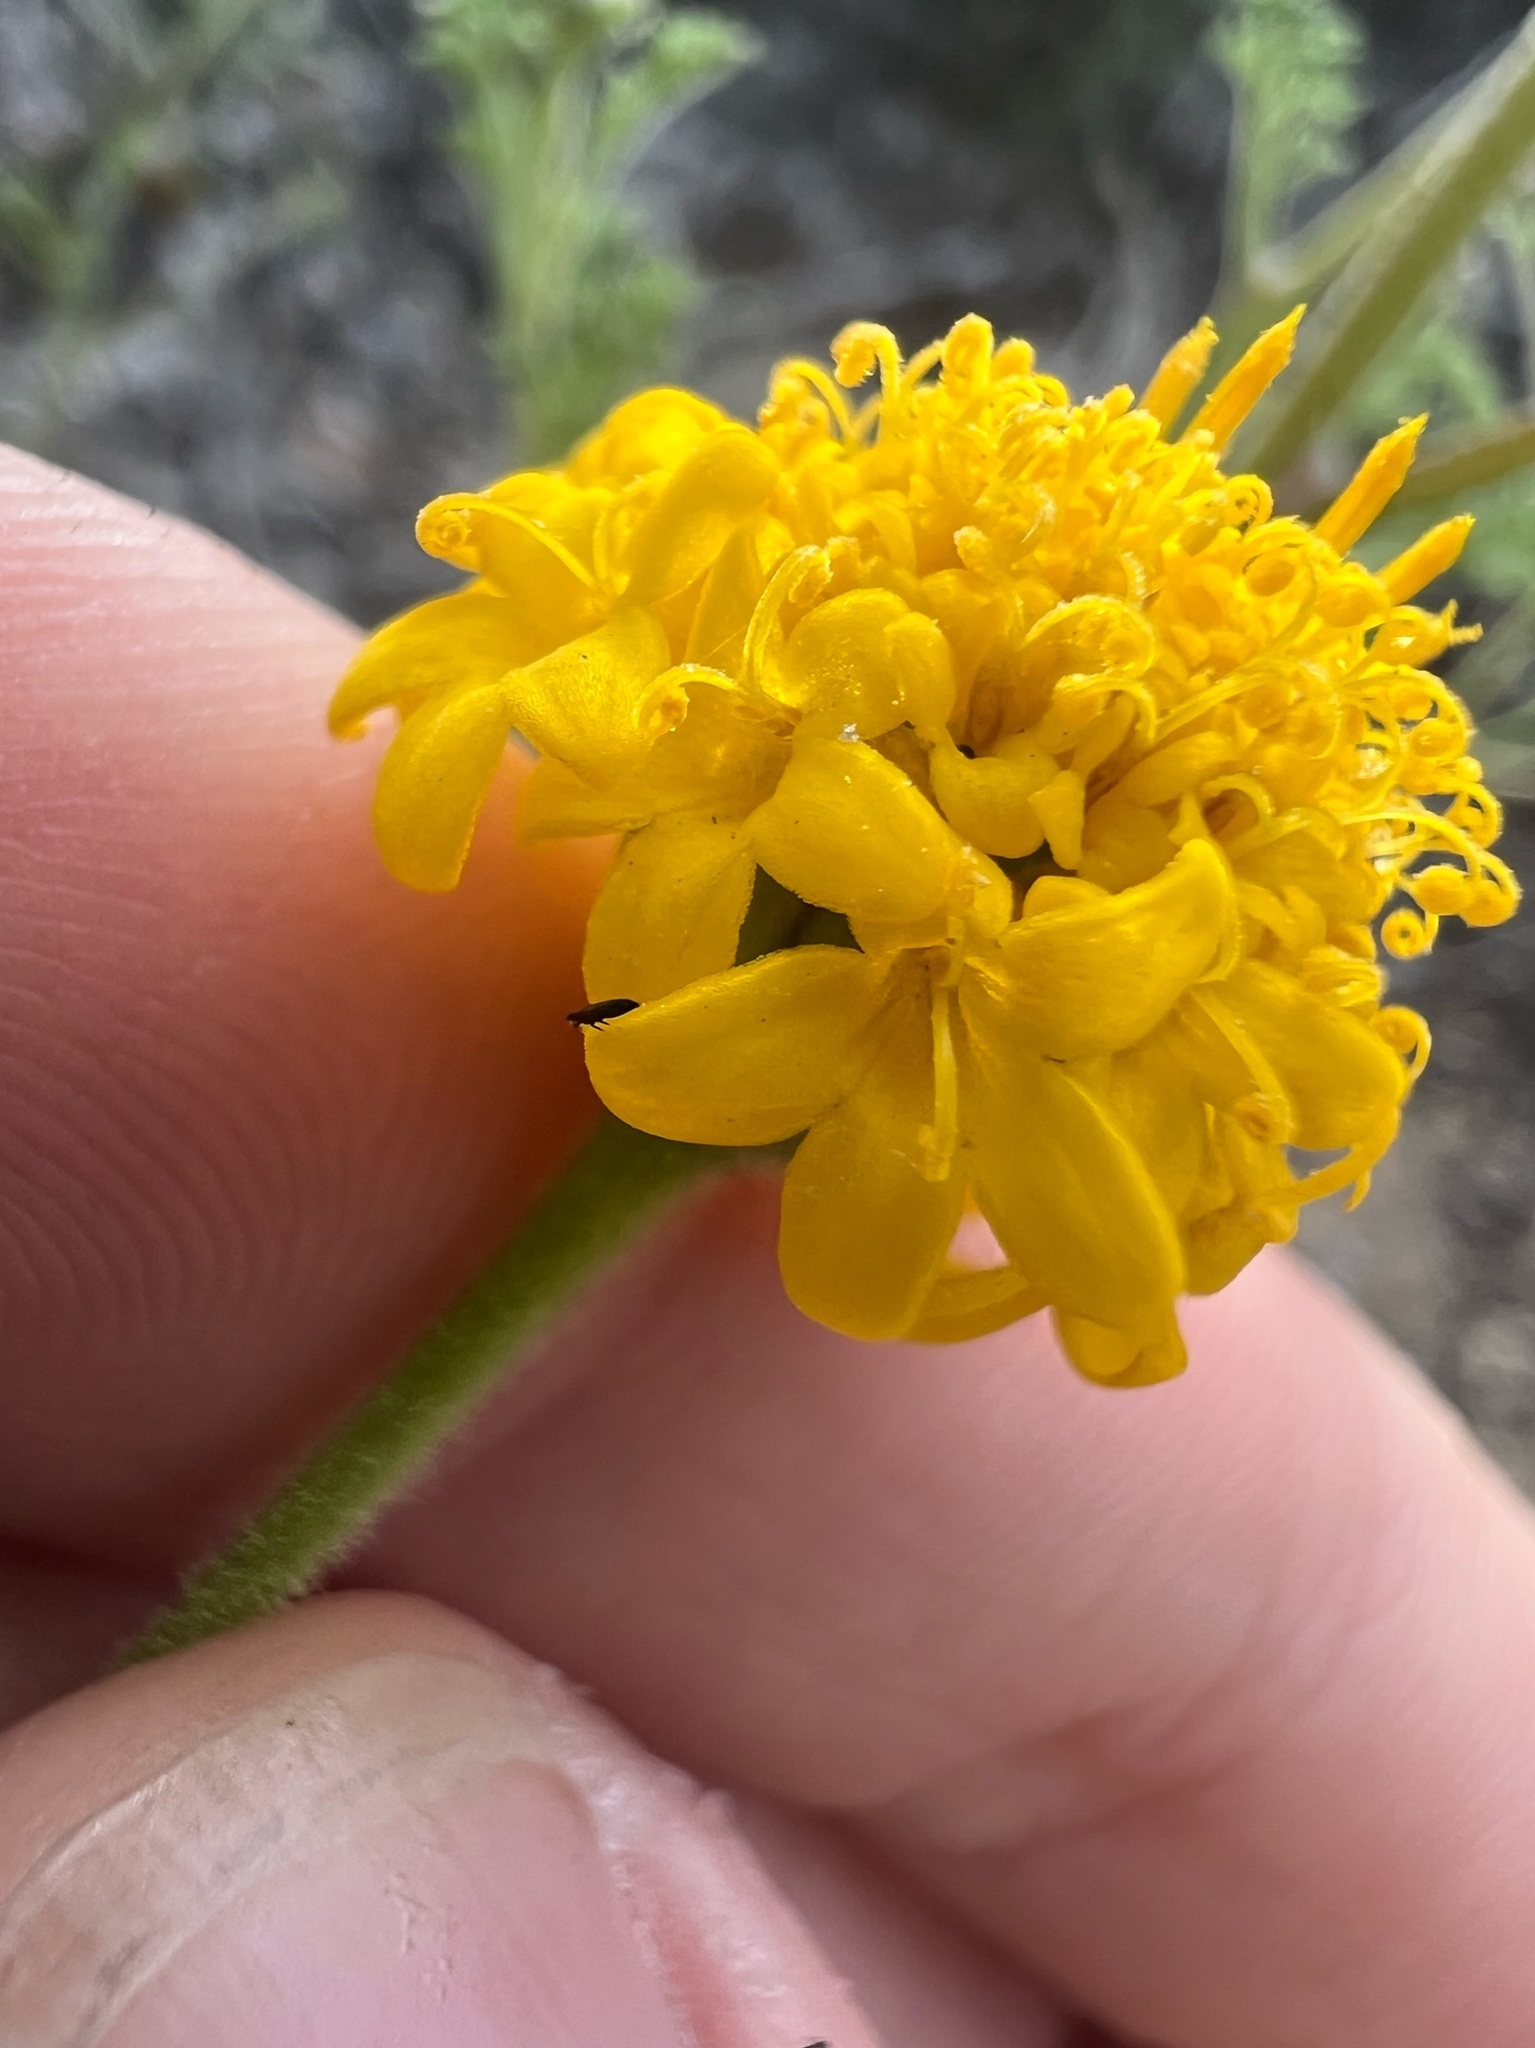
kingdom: Plantae
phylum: Tracheophyta
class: Magnoliopsida
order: Asterales
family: Asteraceae
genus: Chaenactis
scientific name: Chaenactis glabriuscula
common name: Yellow pincushion
